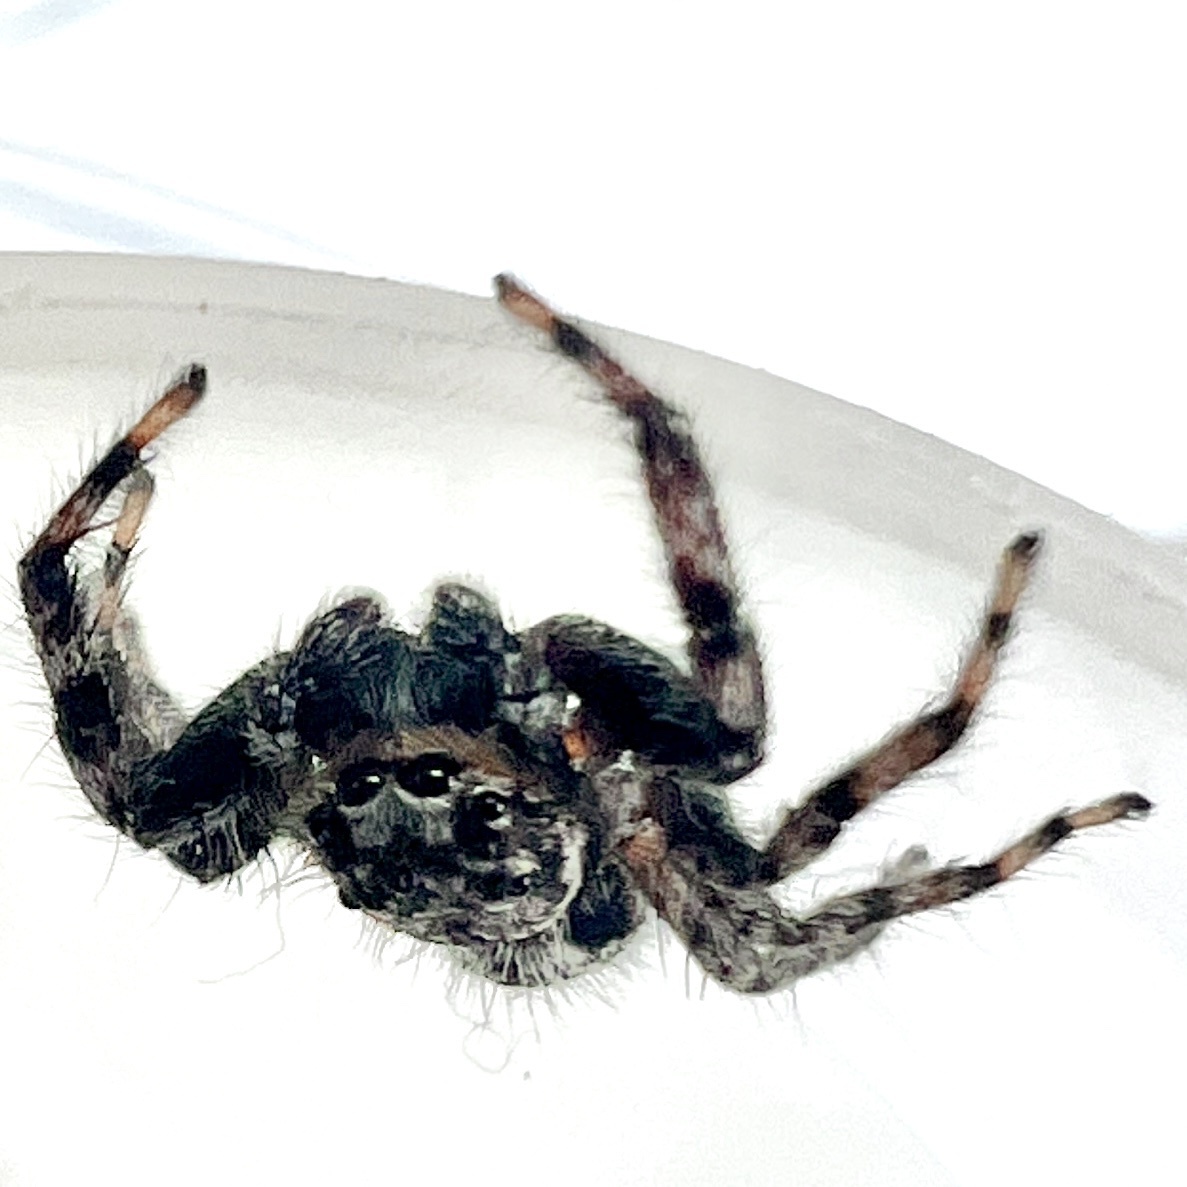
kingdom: Animalia
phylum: Arthropoda
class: Arachnida
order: Araneae
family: Salticidae
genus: Platycryptus
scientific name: Platycryptus undatus
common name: Tan jumping spider
